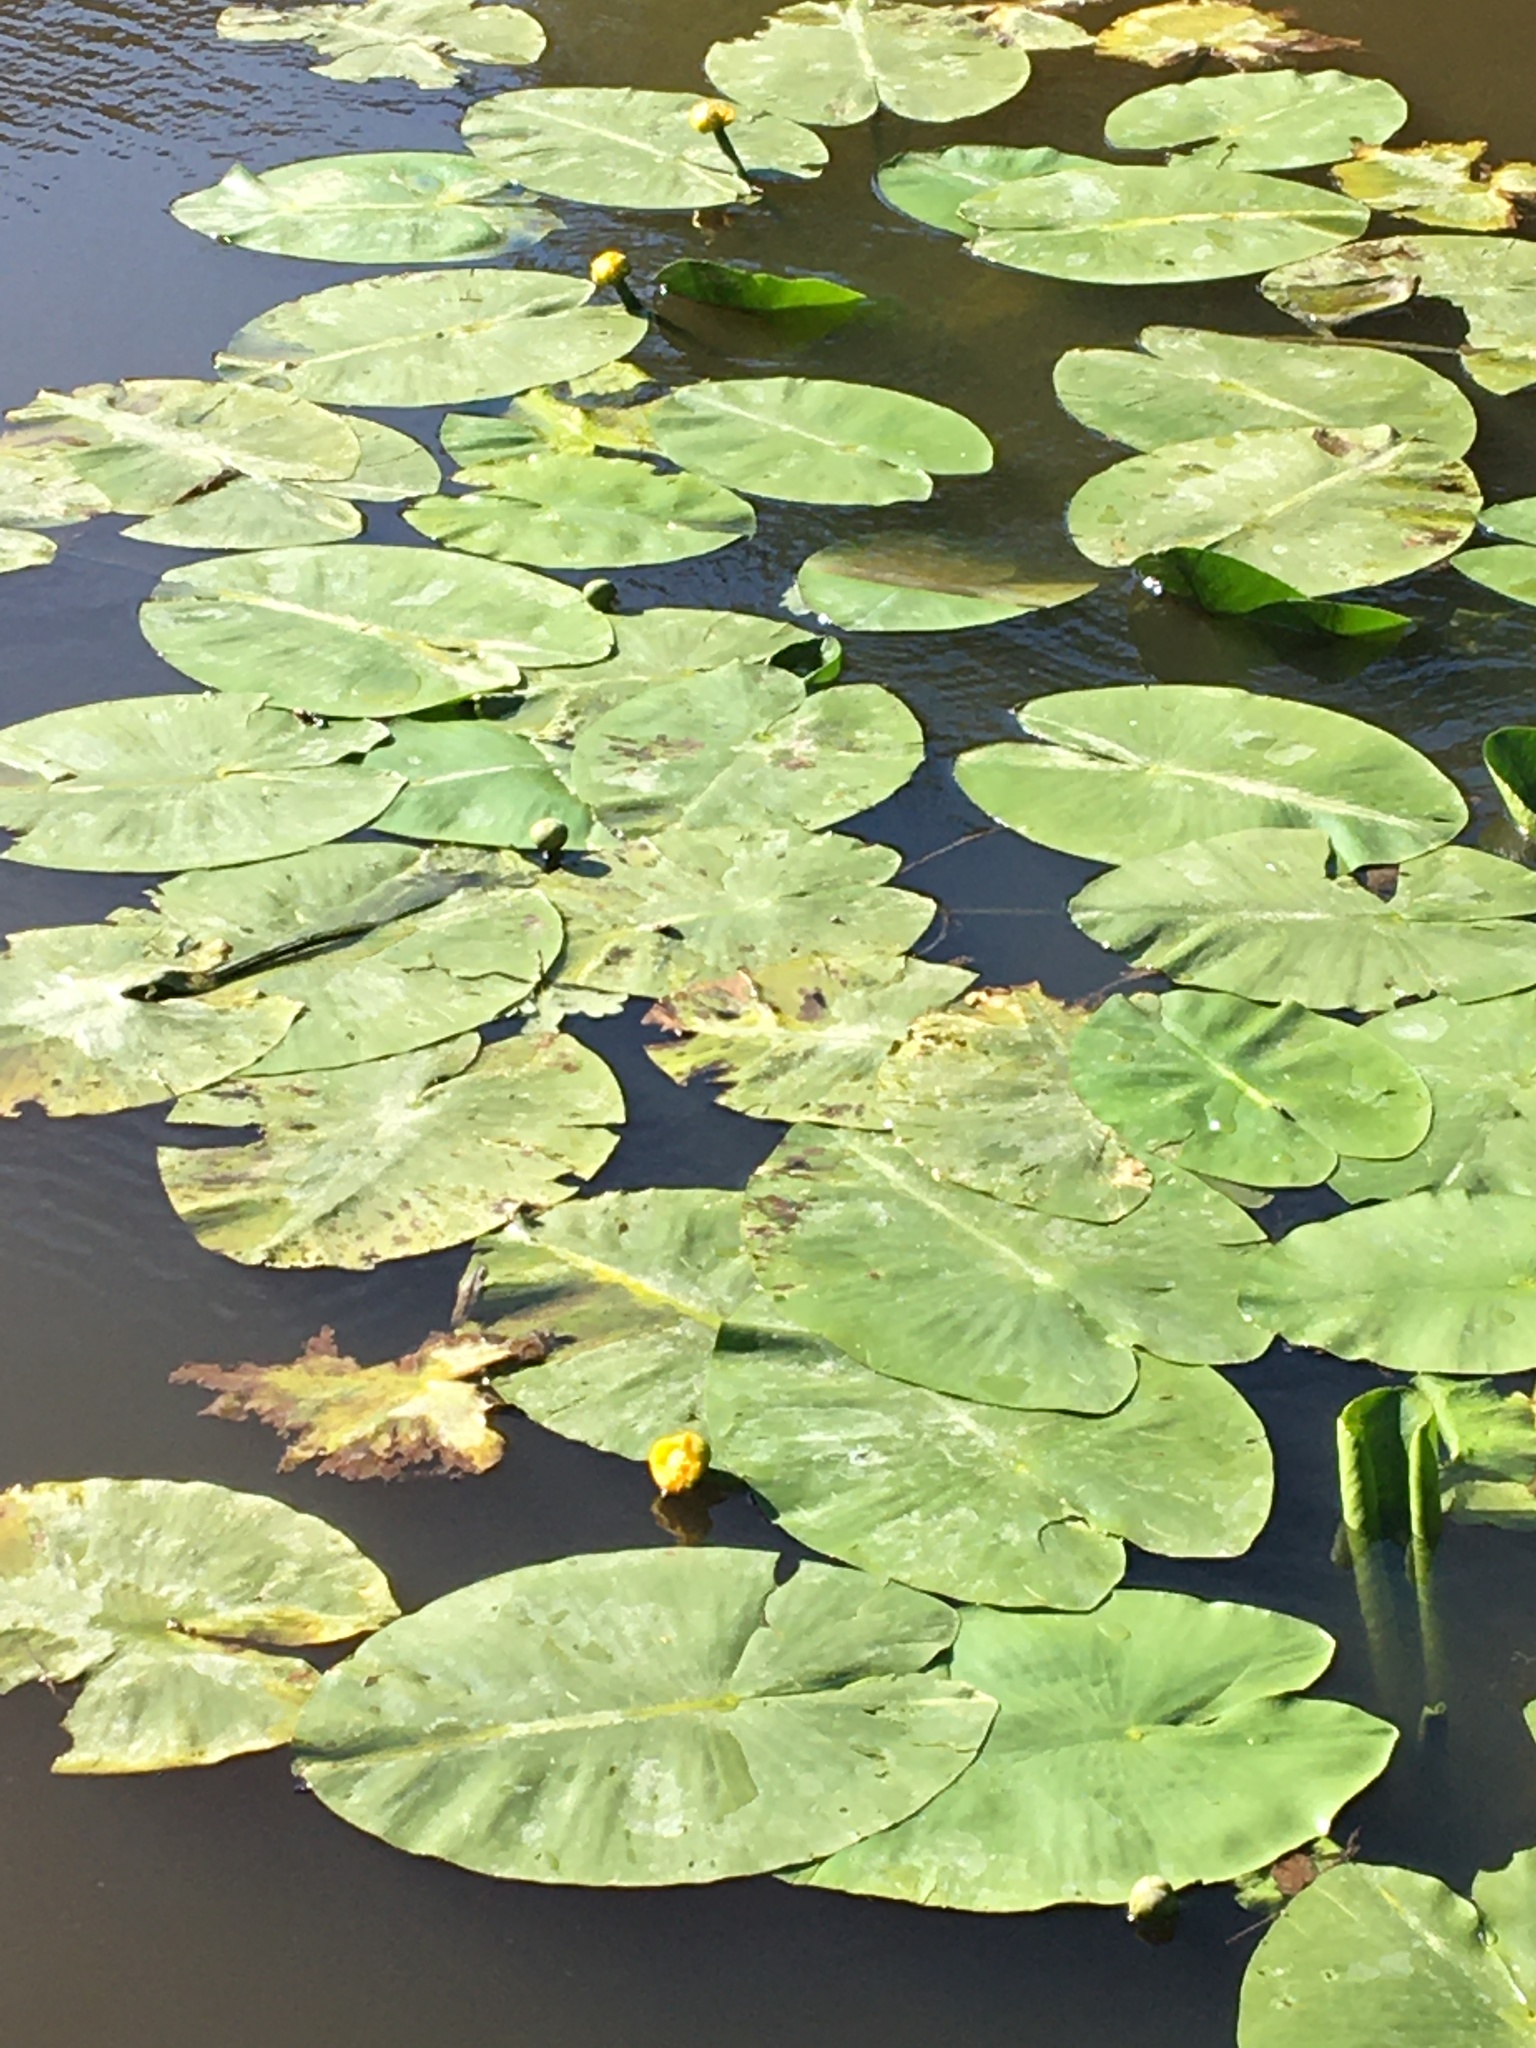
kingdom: Plantae
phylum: Tracheophyta
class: Magnoliopsida
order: Nymphaeales
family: Nymphaeaceae
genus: Nuphar
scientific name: Nuphar lutea
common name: Yellow water-lily
